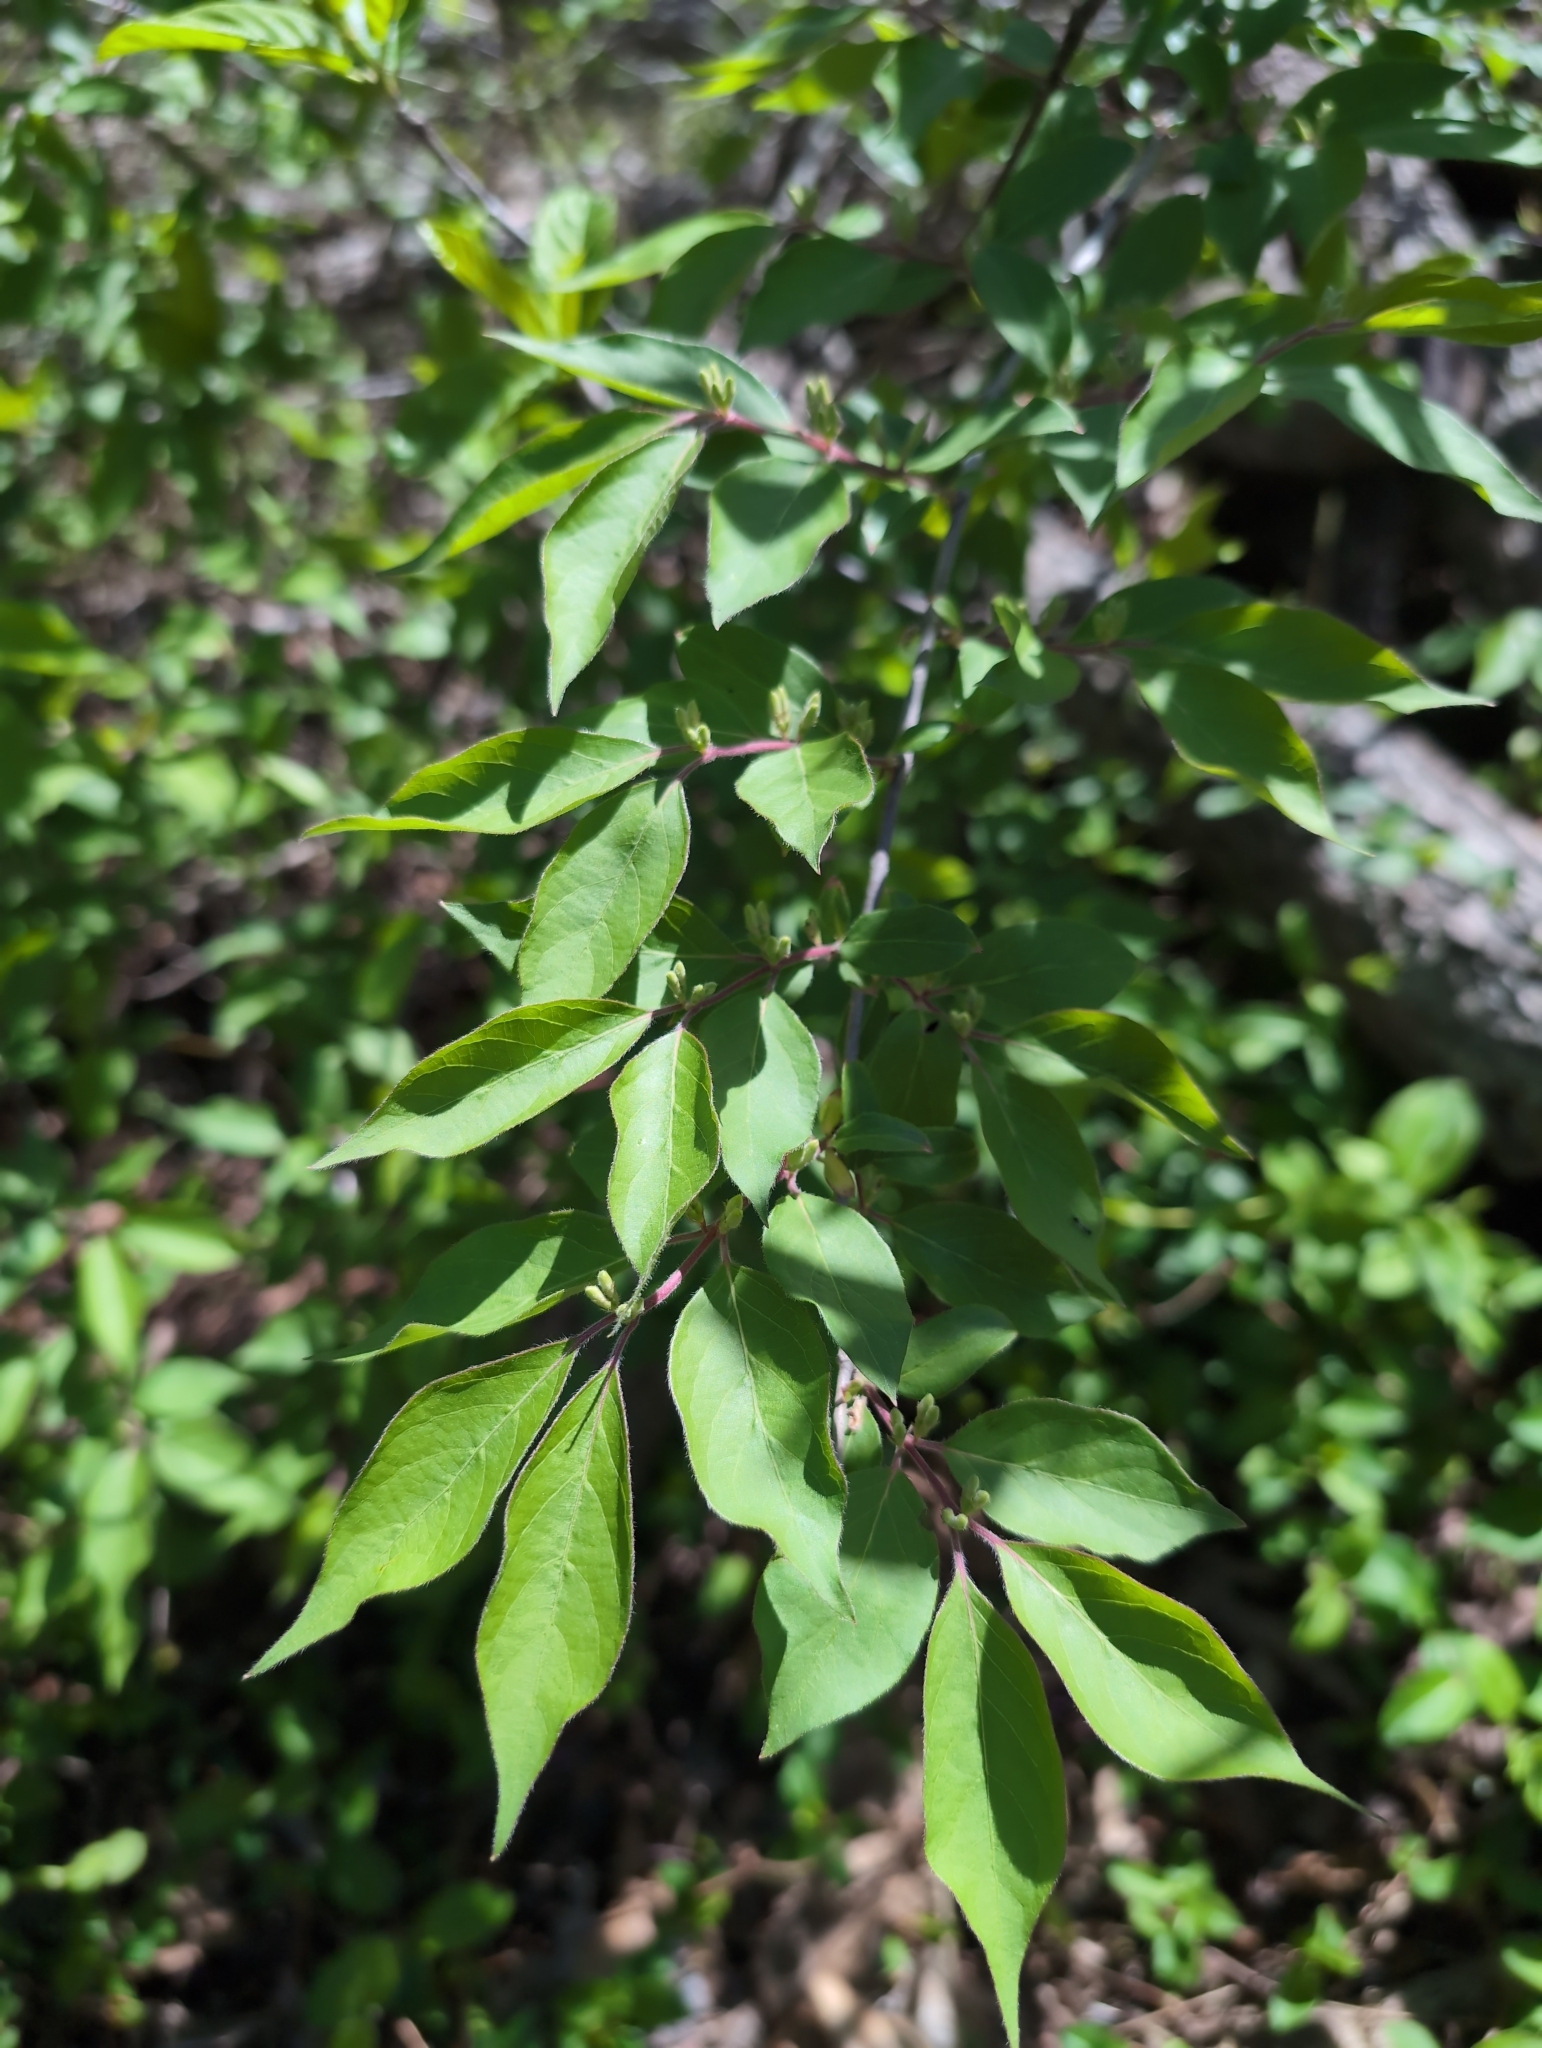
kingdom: Plantae
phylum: Tracheophyta
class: Magnoliopsida
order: Dipsacales
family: Caprifoliaceae
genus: Lonicera
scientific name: Lonicera maackii
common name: Amur honeysuckle
